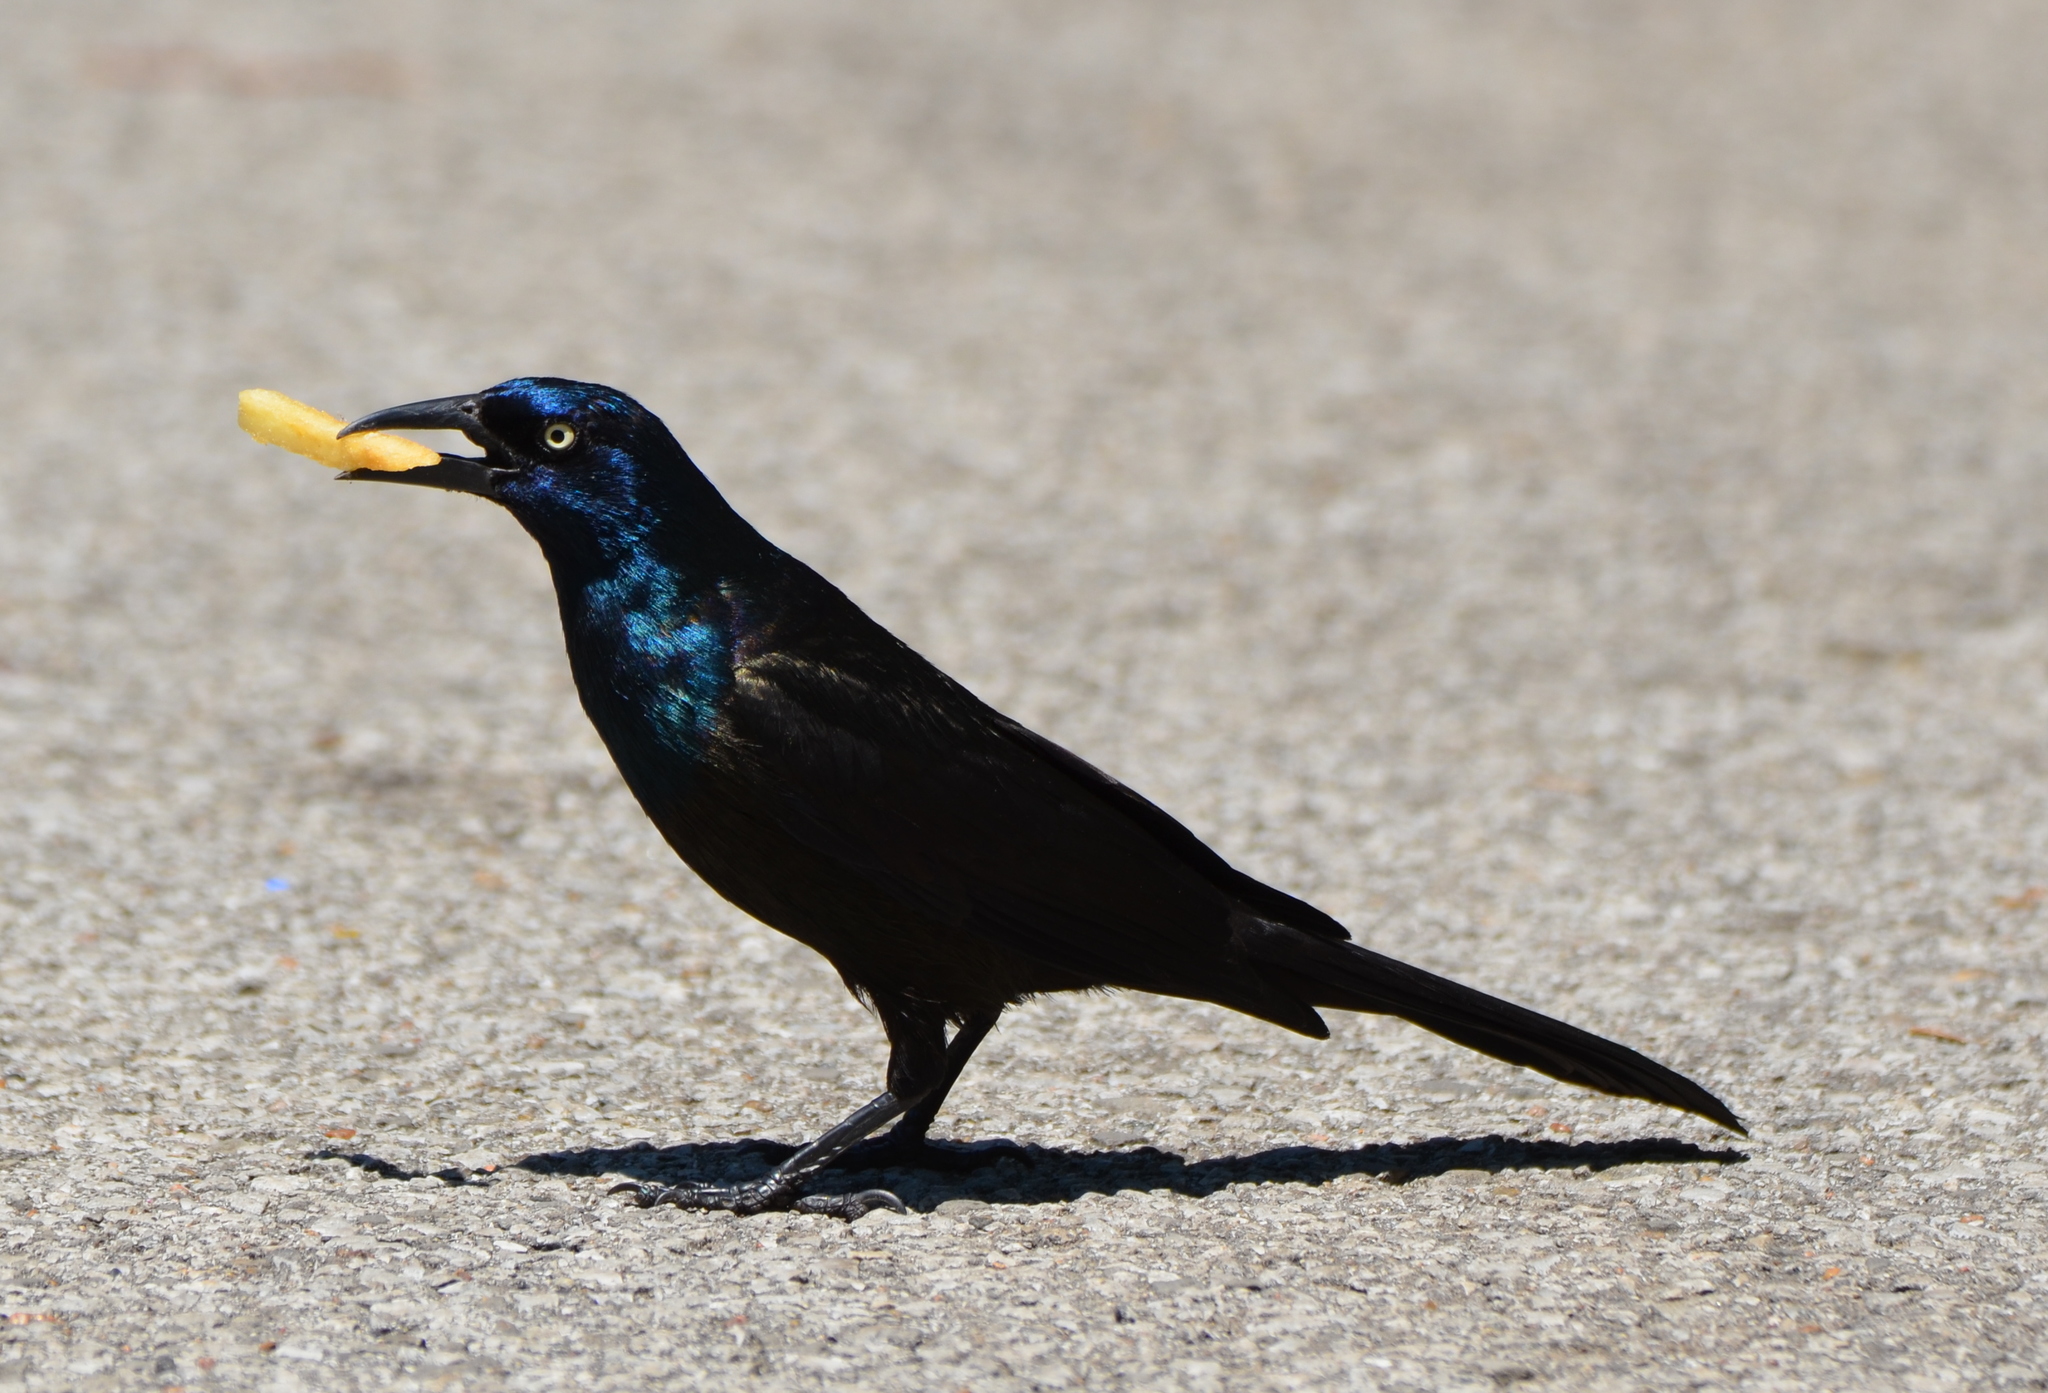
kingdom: Animalia
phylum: Chordata
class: Aves
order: Passeriformes
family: Icteridae
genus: Quiscalus
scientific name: Quiscalus quiscula
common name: Common grackle
